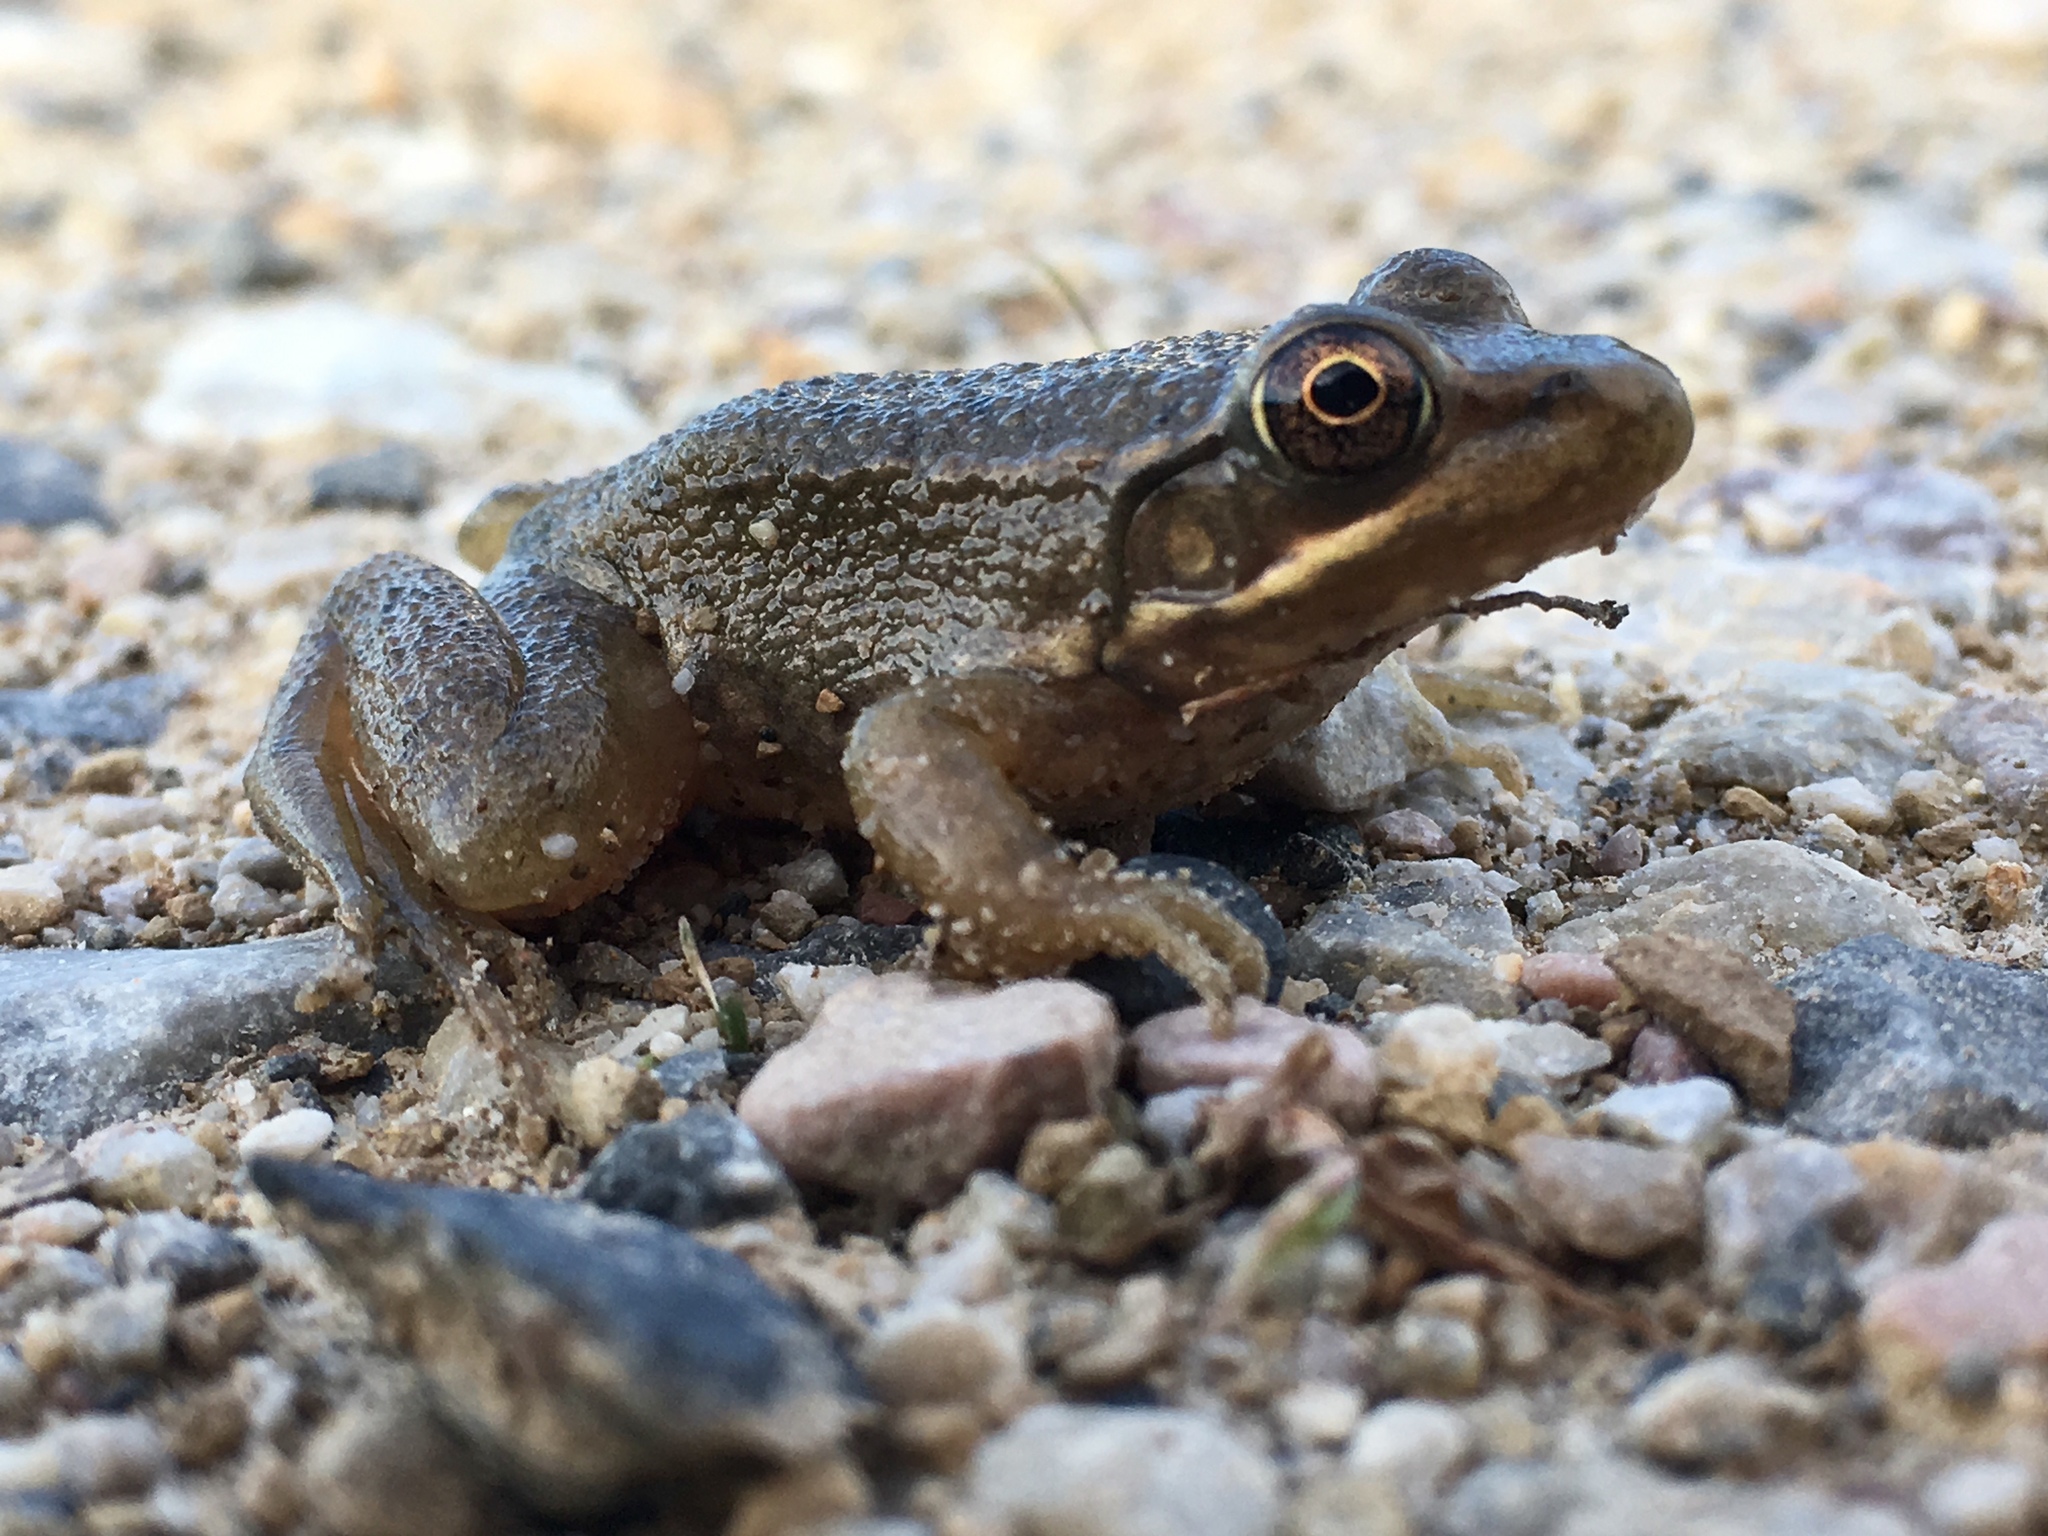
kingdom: Animalia
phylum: Chordata
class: Amphibia
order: Anura
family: Ranidae
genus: Lithobates
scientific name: Lithobates clamitans
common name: Green frog
